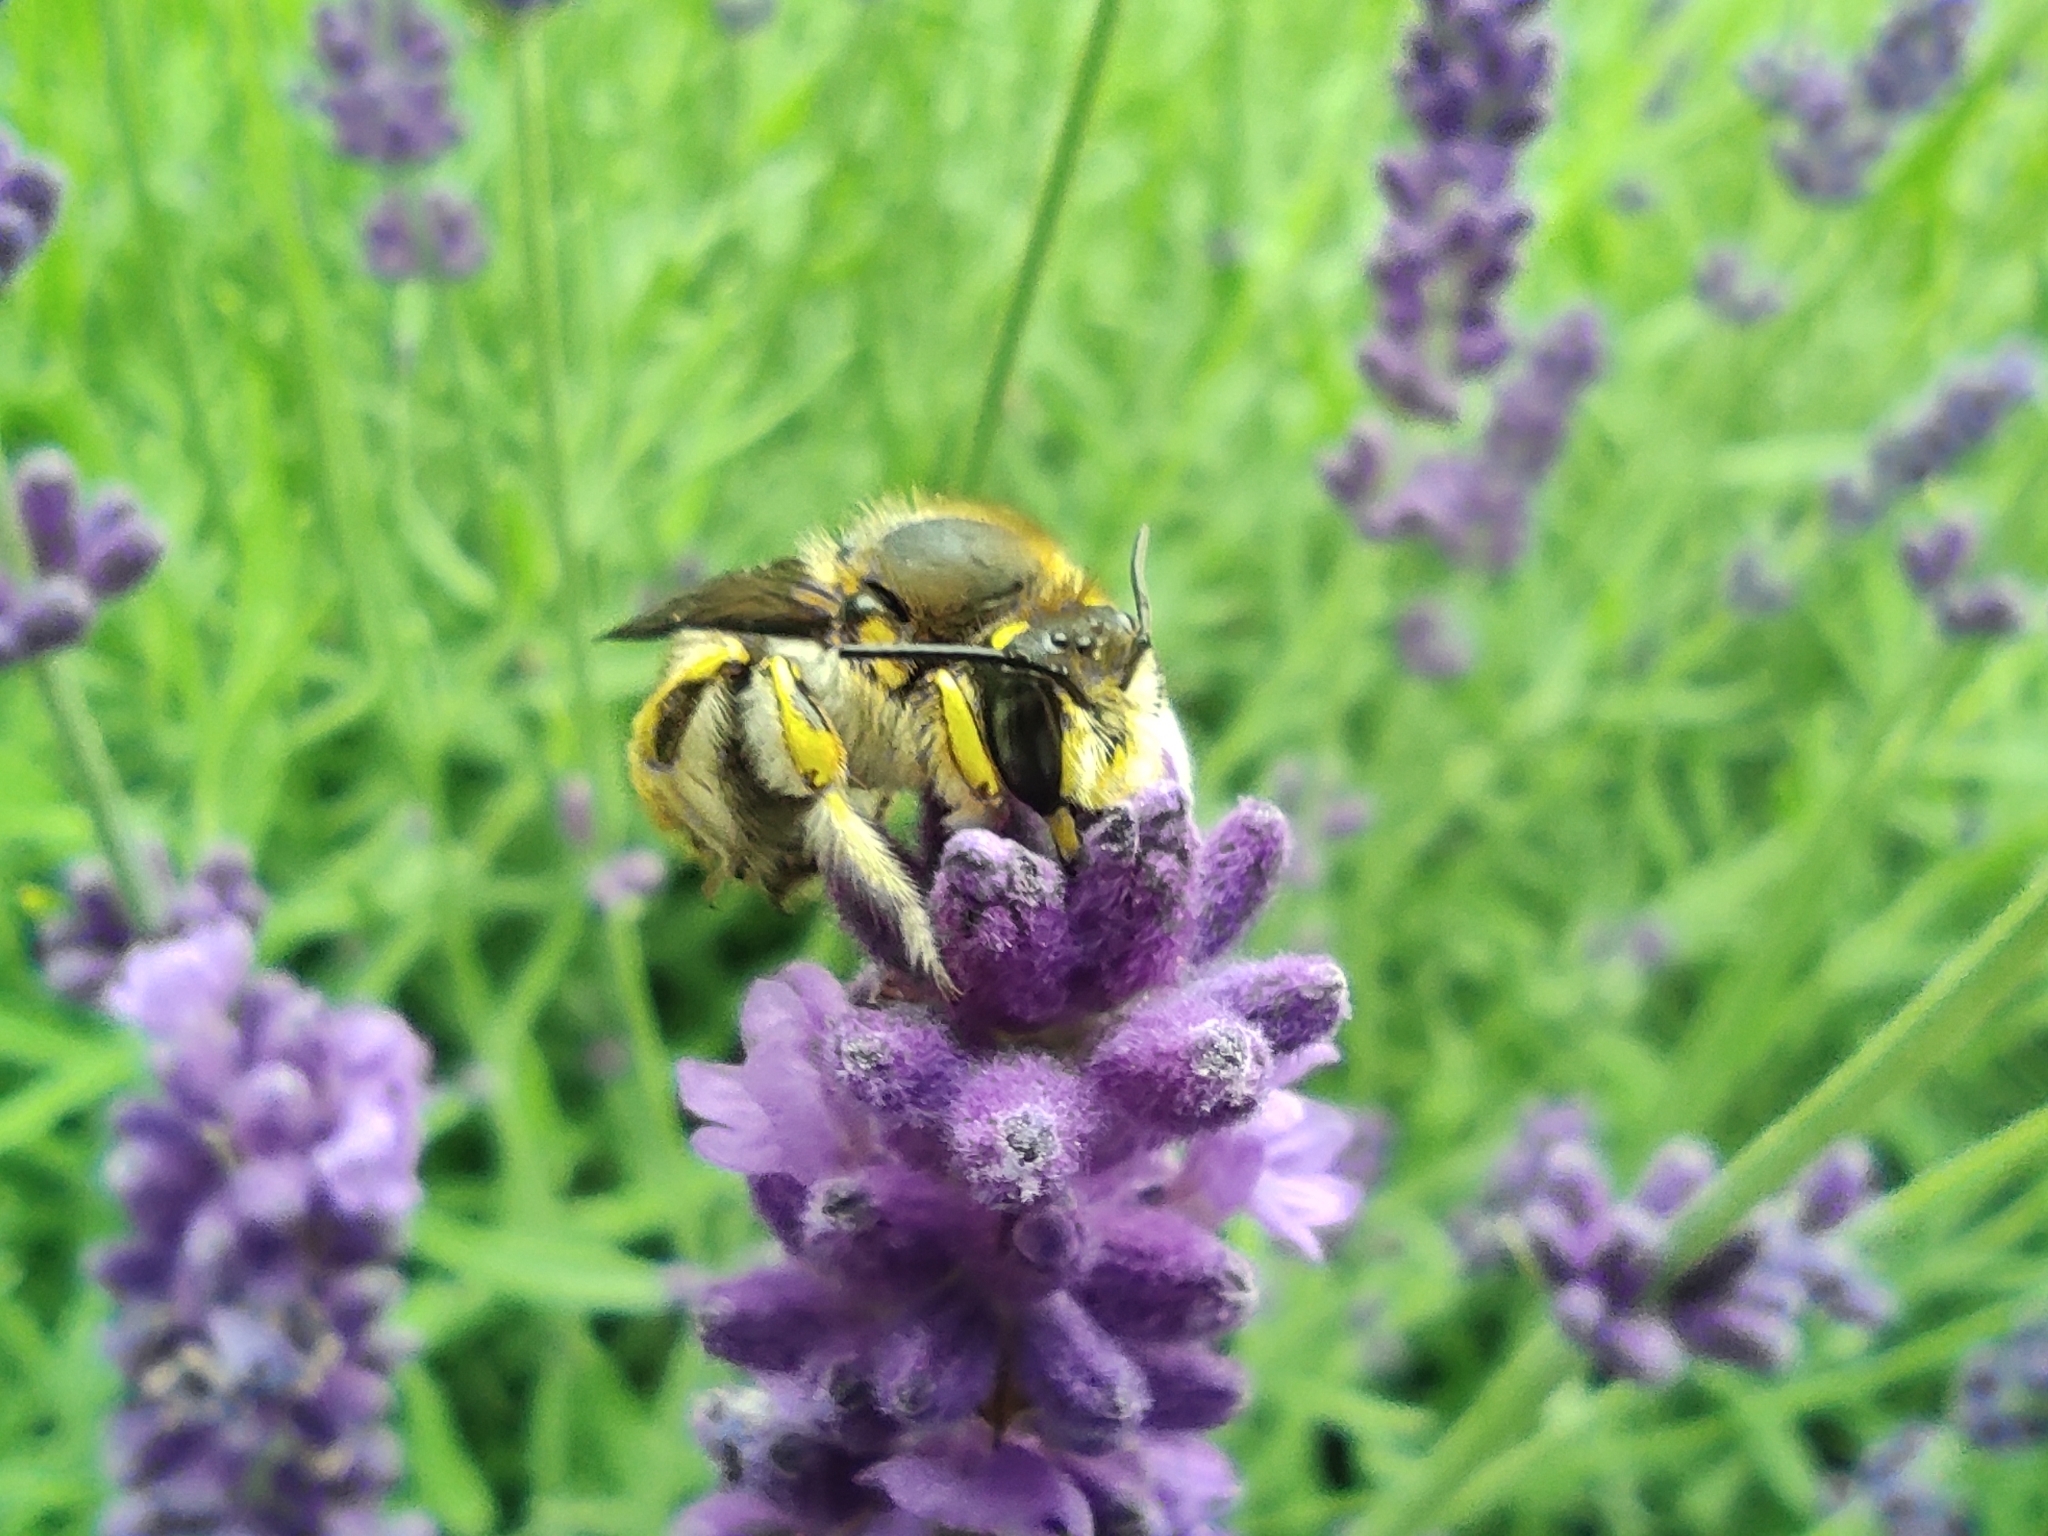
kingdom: Animalia
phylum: Arthropoda
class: Insecta
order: Hymenoptera
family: Megachilidae
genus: Anthidium
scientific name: Anthidium manicatum
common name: Wool carder bee
